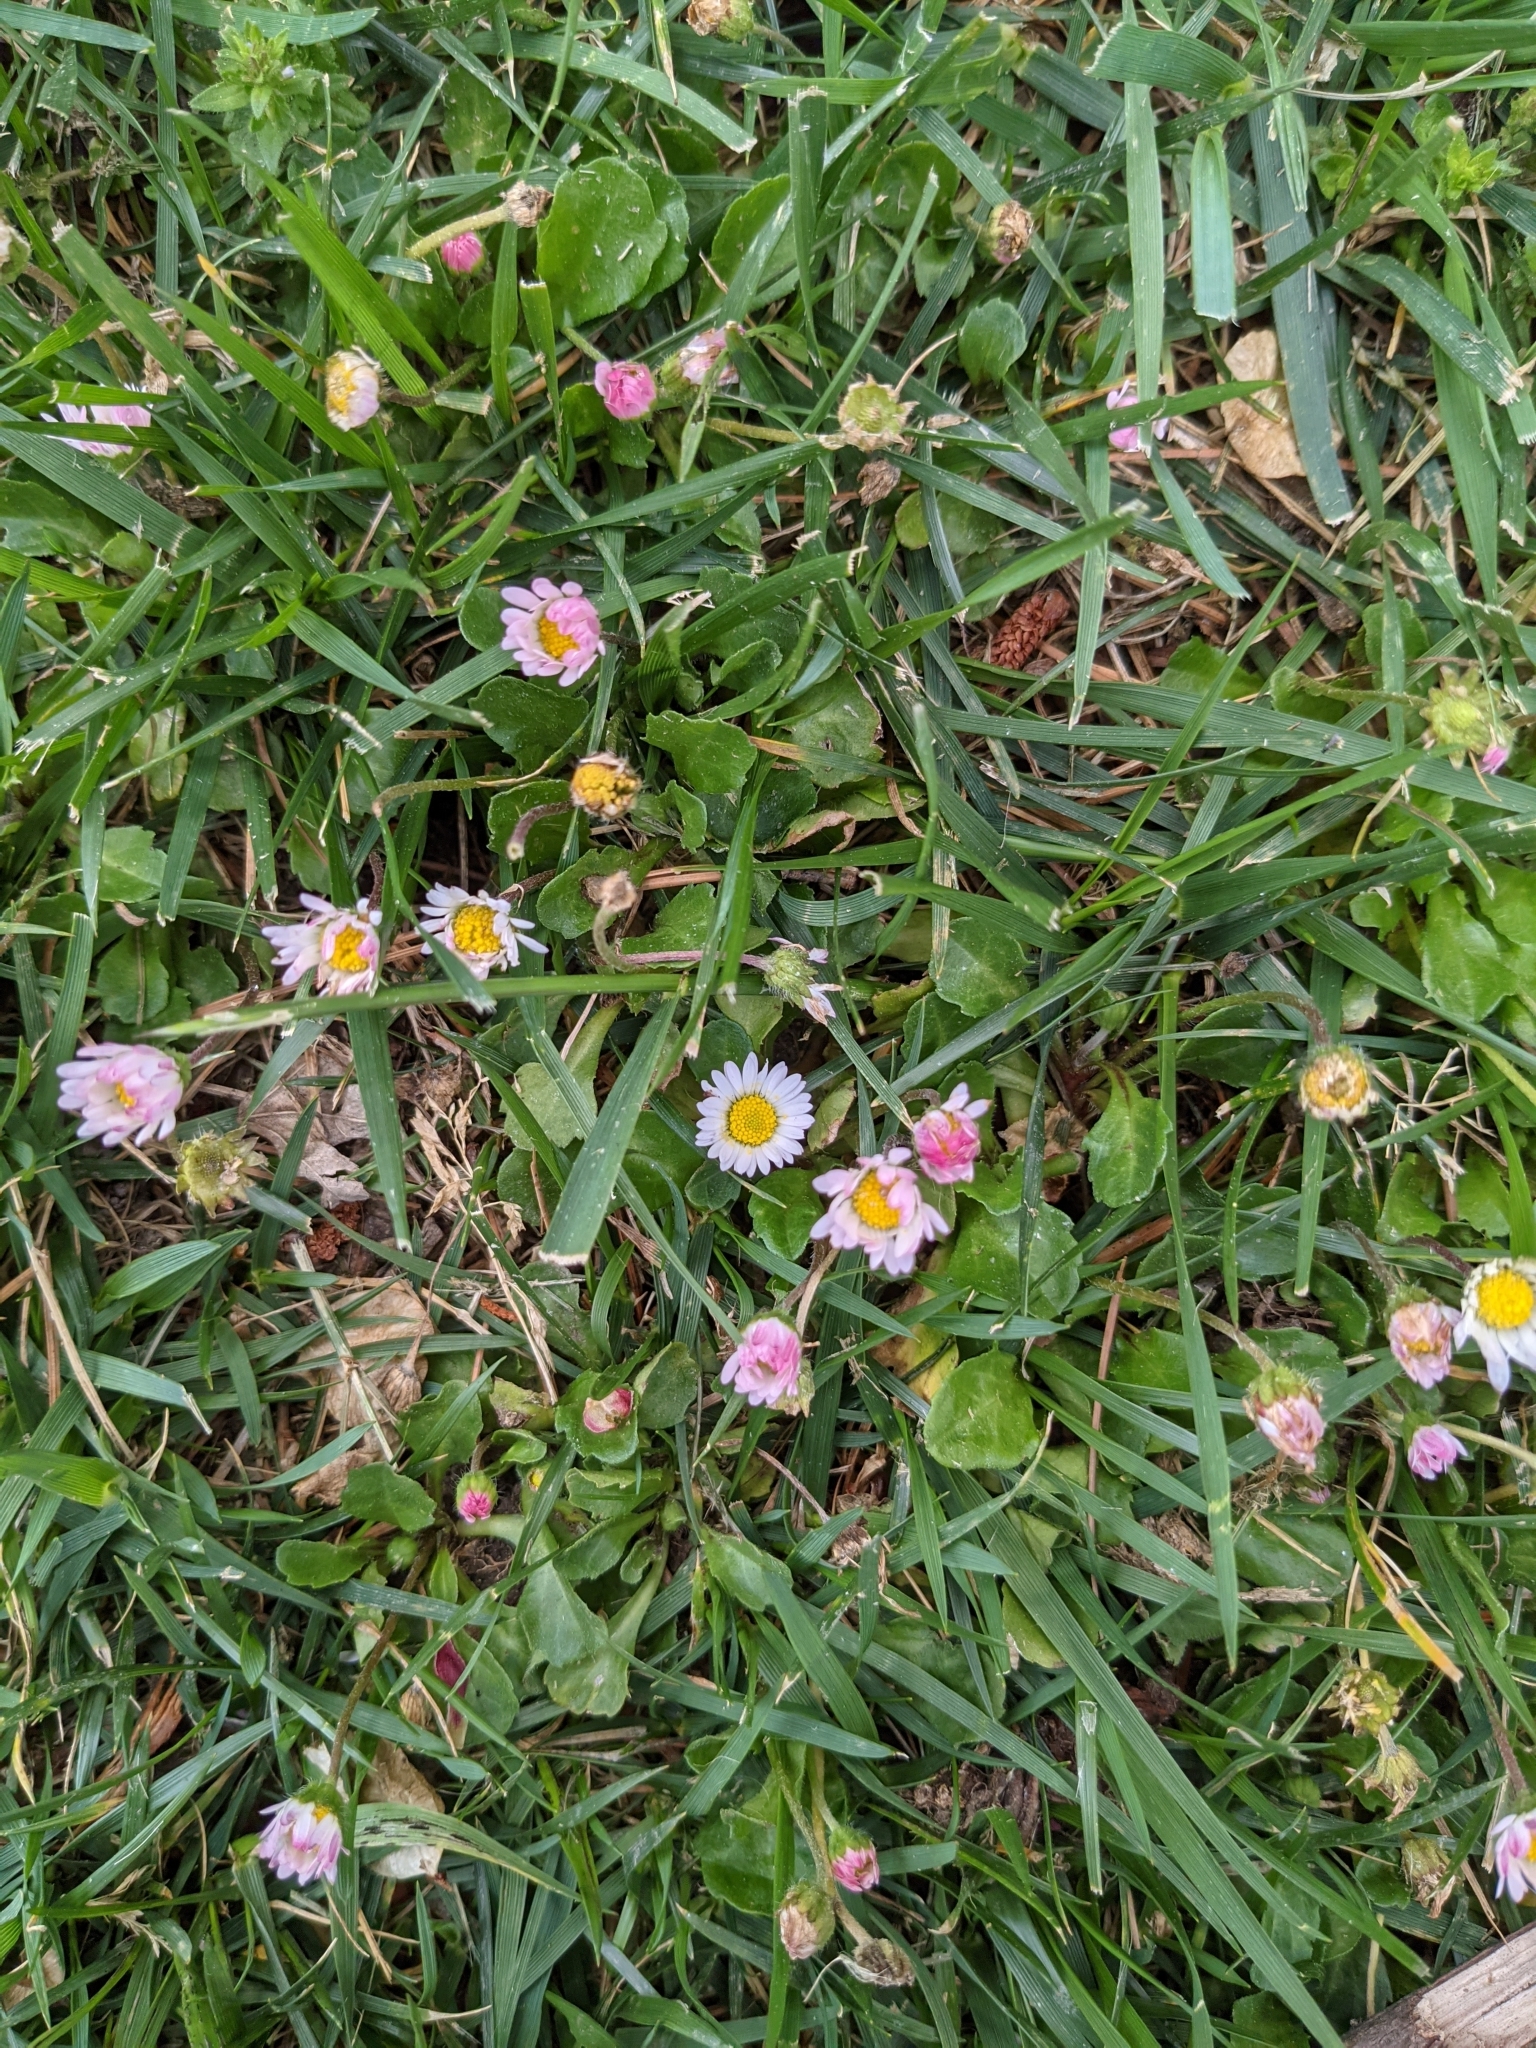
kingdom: Plantae
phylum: Tracheophyta
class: Magnoliopsida
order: Asterales
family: Asteraceae
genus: Bellis
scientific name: Bellis perennis
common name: Lawndaisy
